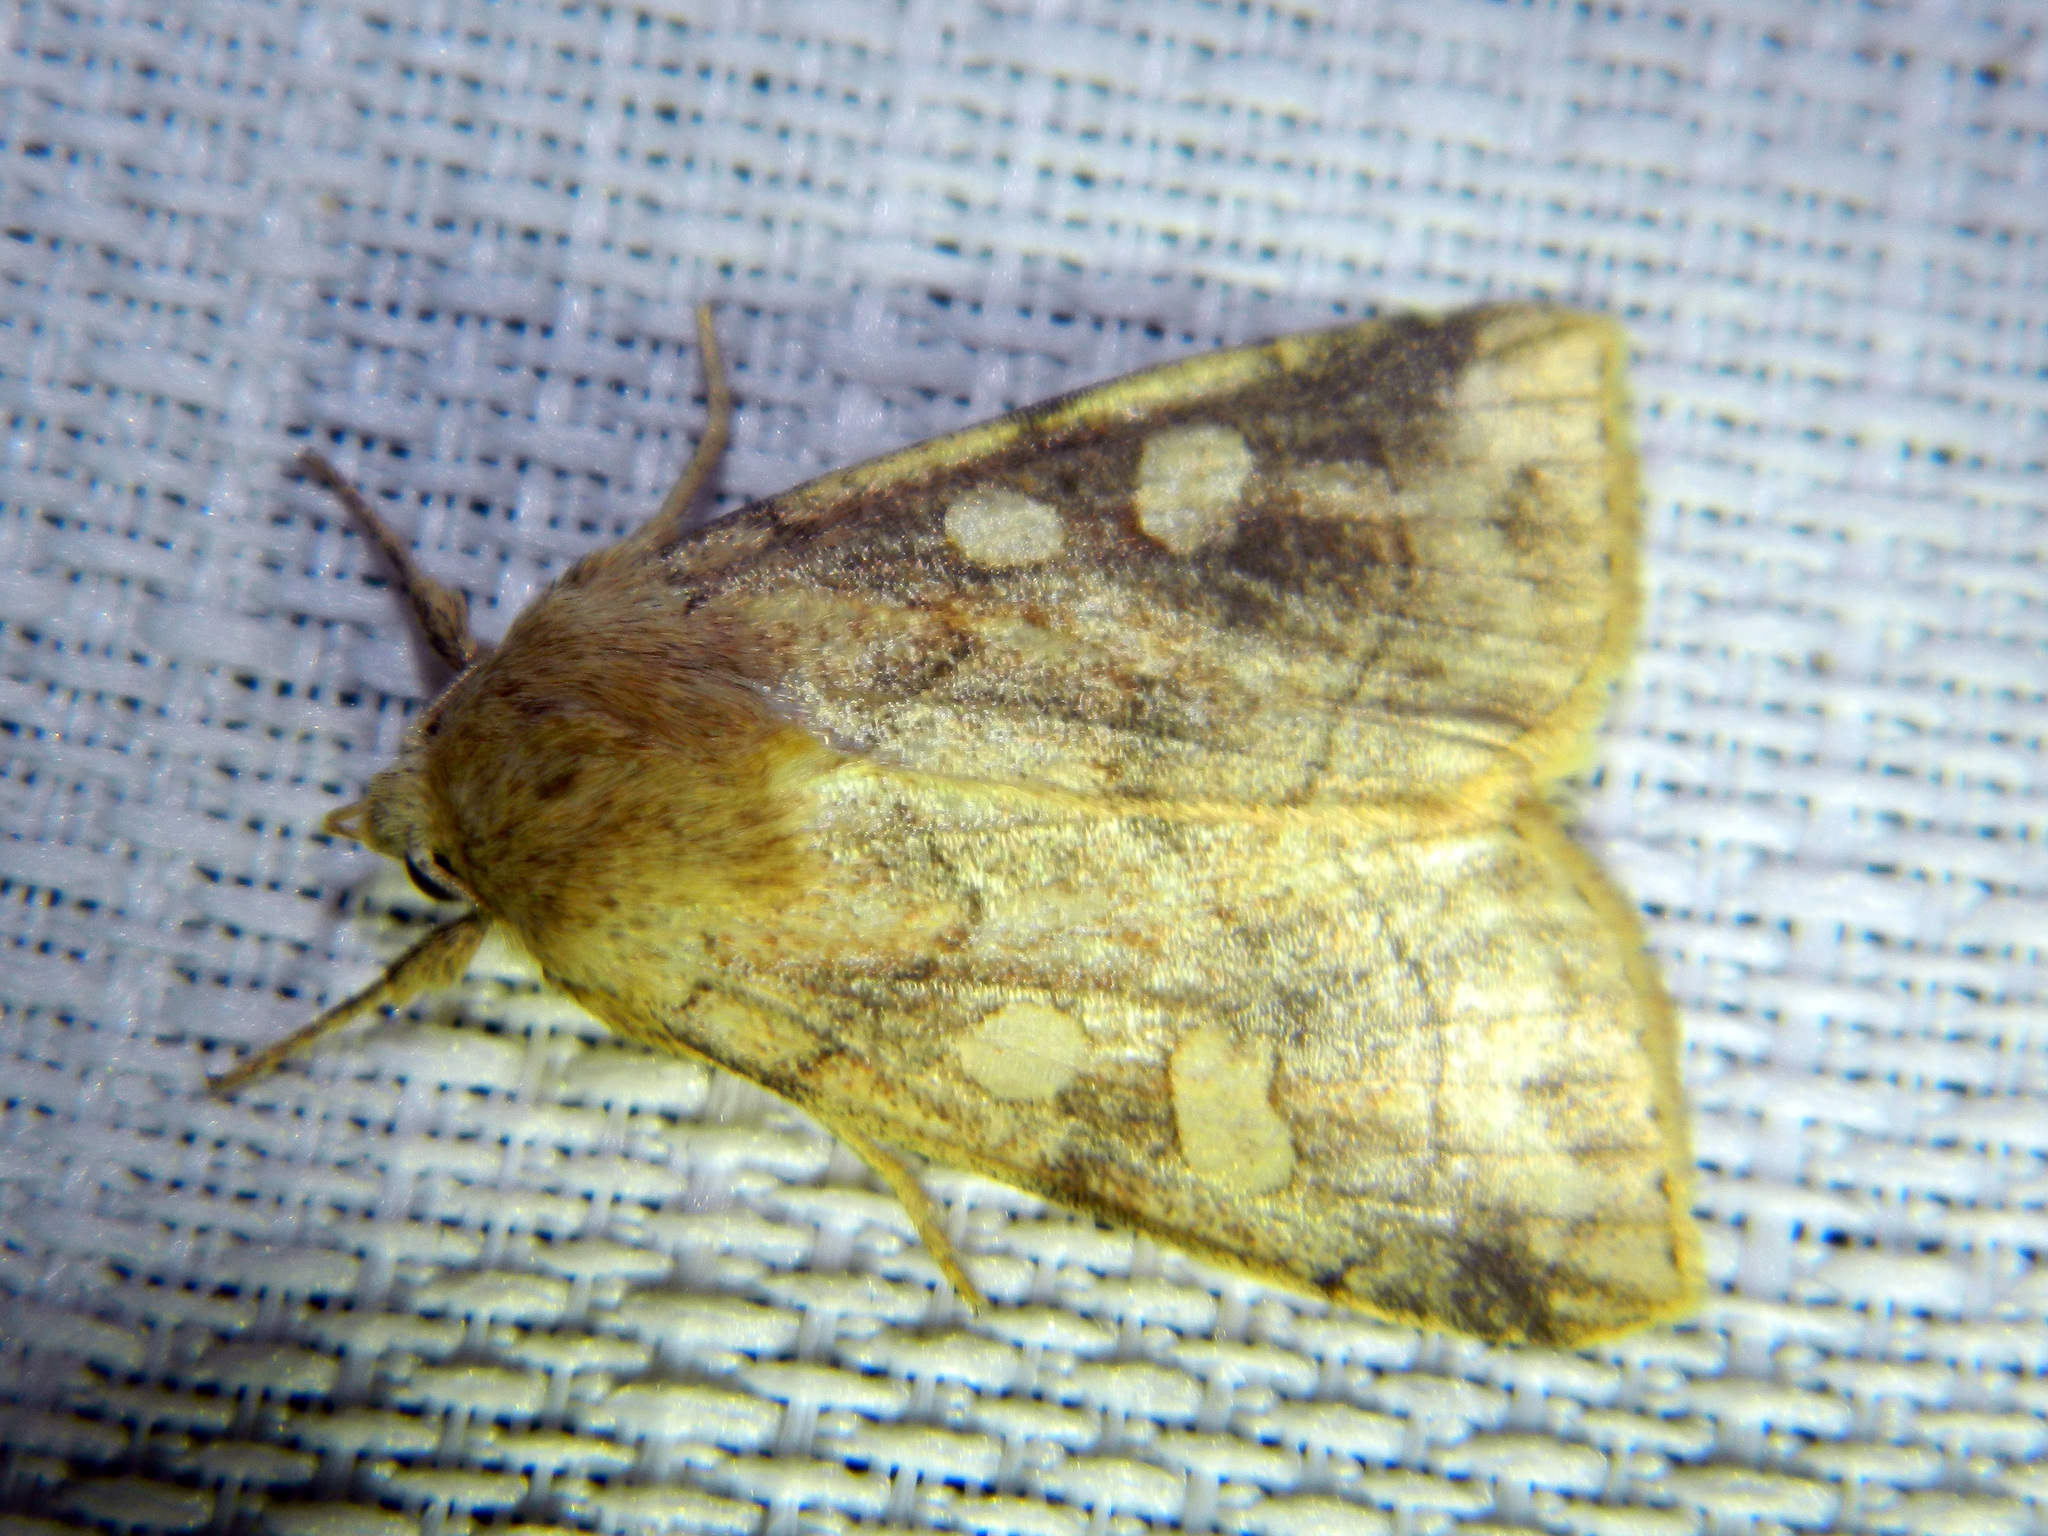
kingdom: Animalia
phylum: Arthropoda
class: Insecta
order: Lepidoptera
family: Noctuidae
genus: Enargia
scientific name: Enargia decolor
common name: Aspen twoleaf tier moth
